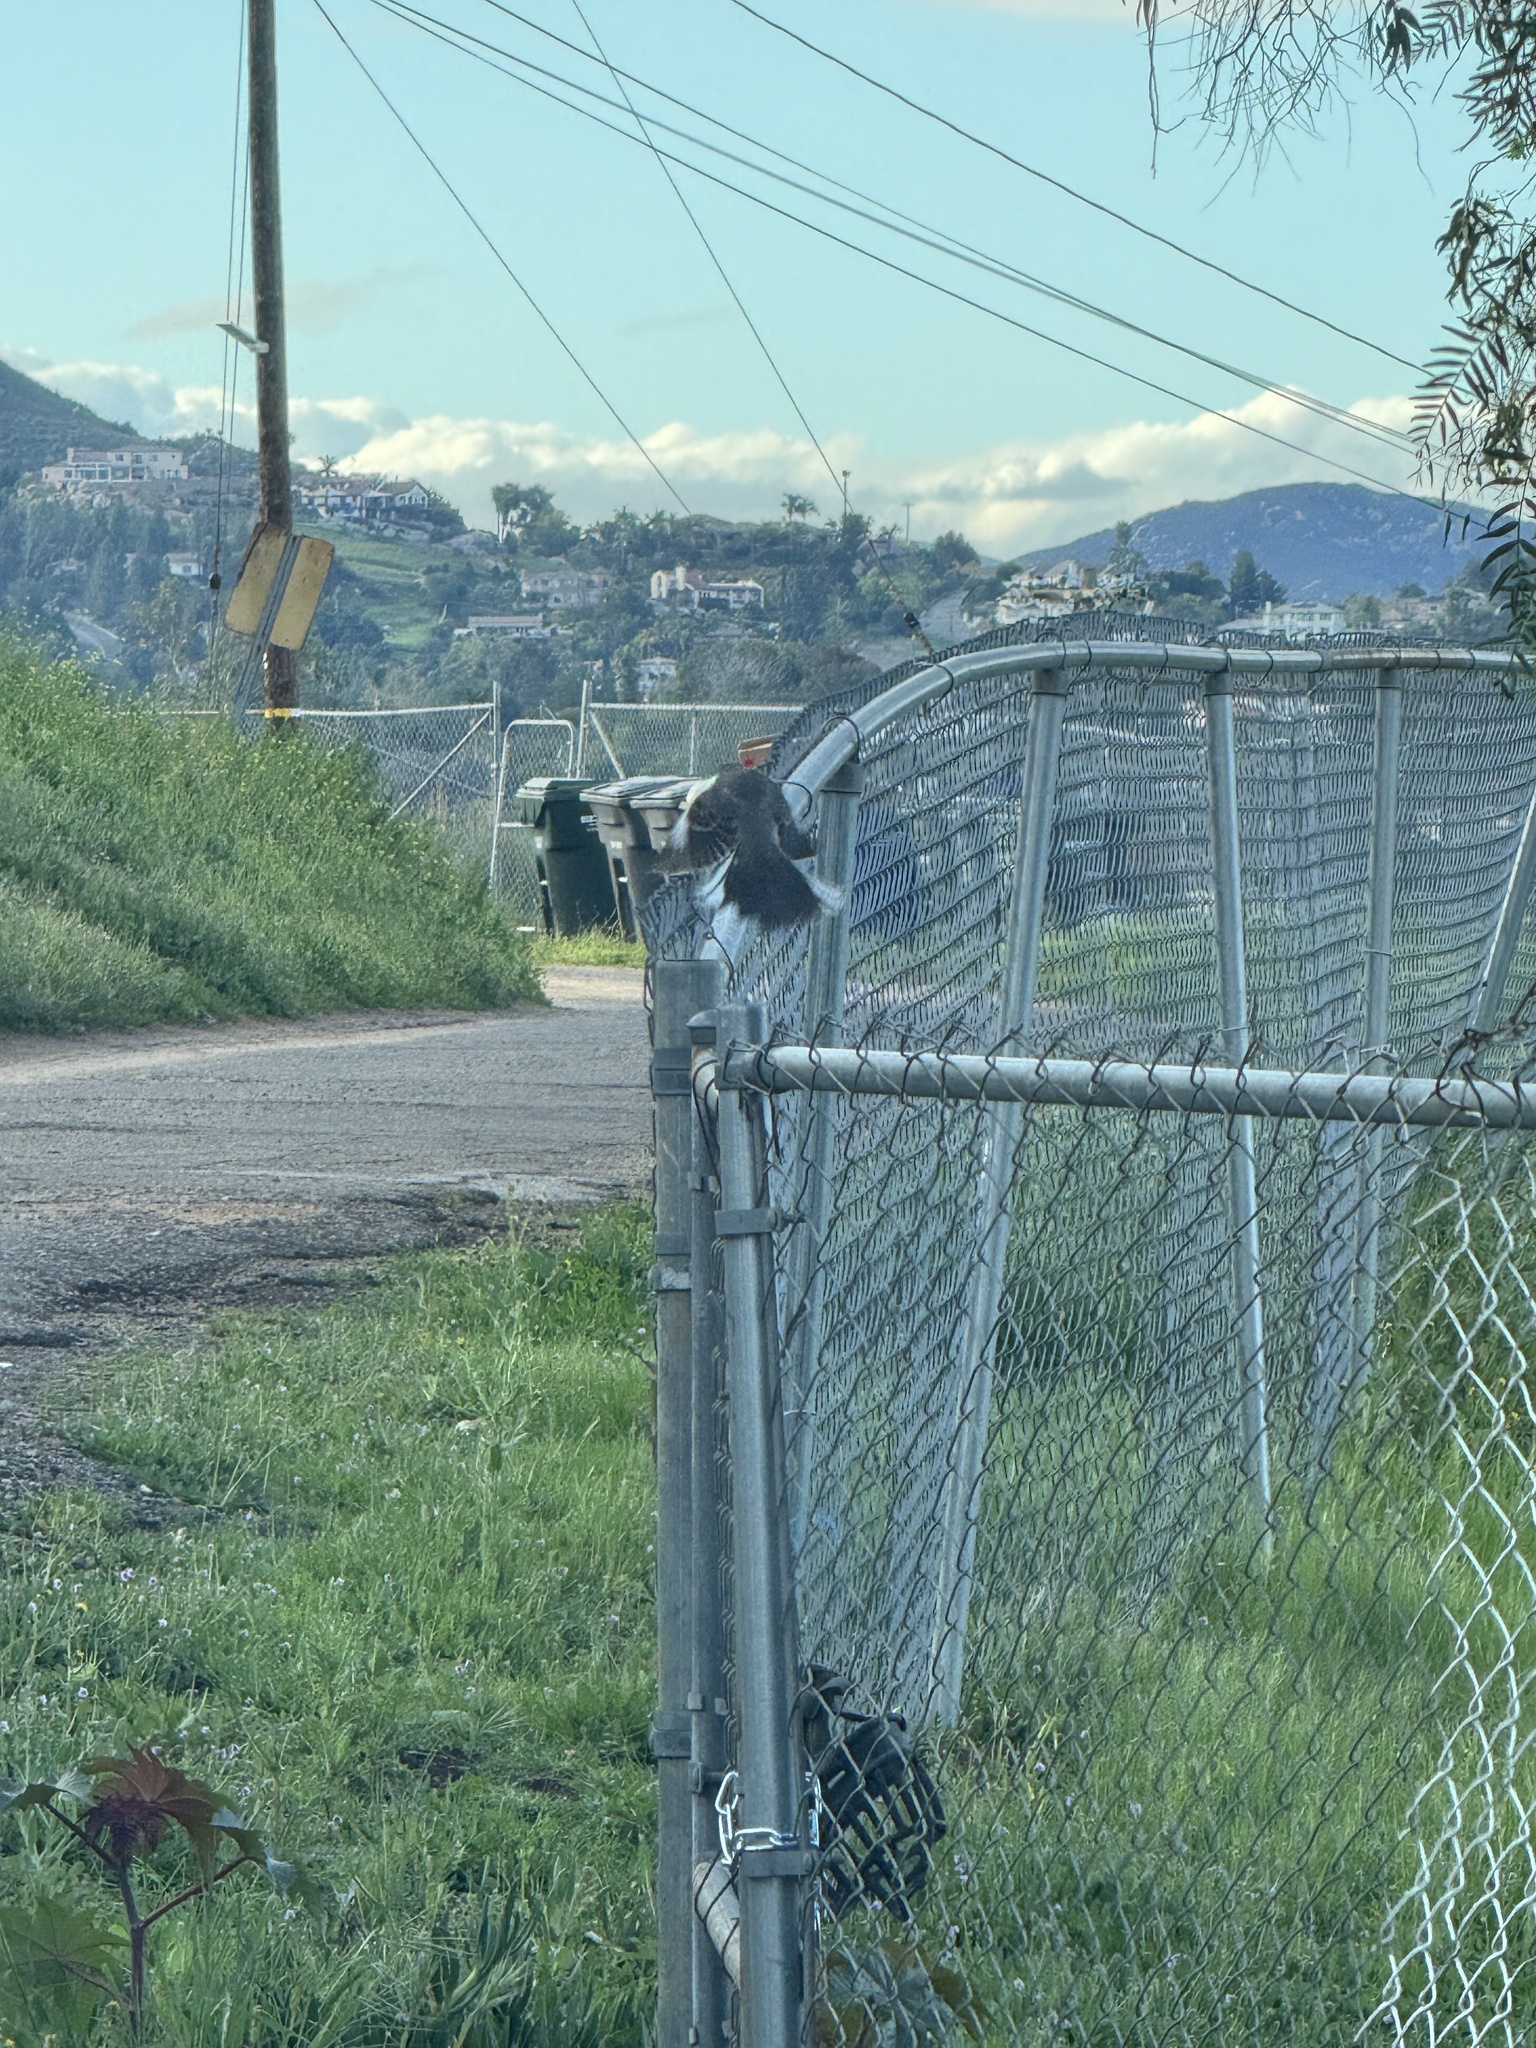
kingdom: Animalia
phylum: Chordata
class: Aves
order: Passeriformes
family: Mimidae
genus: Mimus
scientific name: Mimus polyglottos
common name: Northern mockingbird
